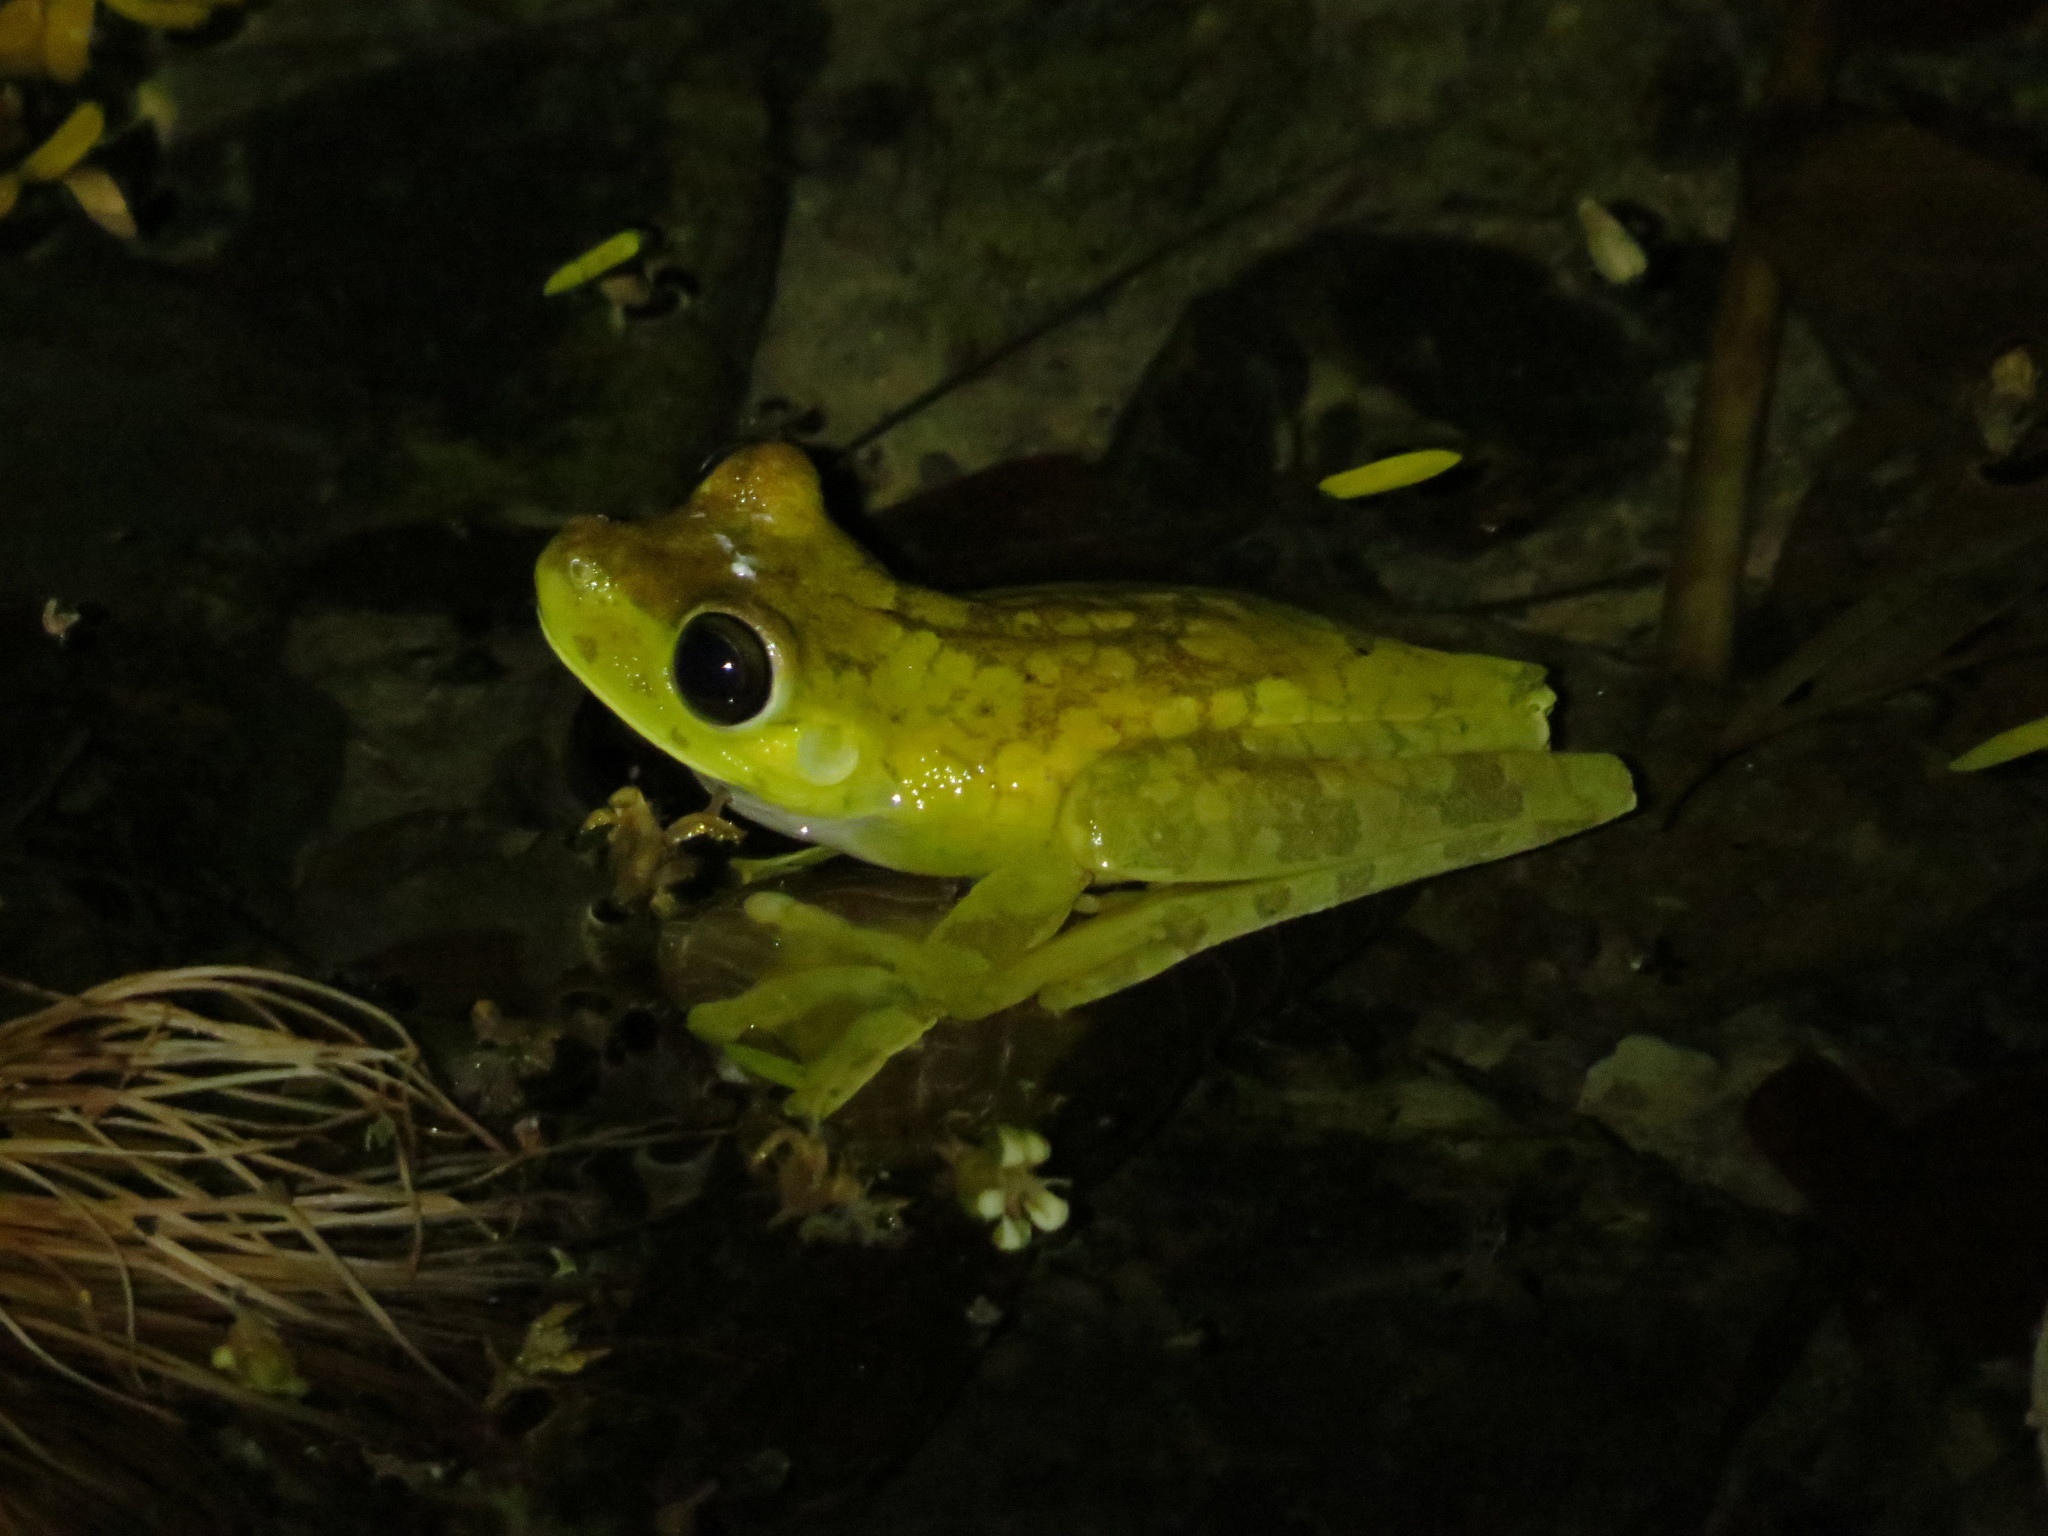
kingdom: Animalia
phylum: Chordata
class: Amphibia
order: Anura
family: Hylidae
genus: Boana
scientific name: Boana rosenbergi
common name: Rosenberg´s gladiator treefrog
